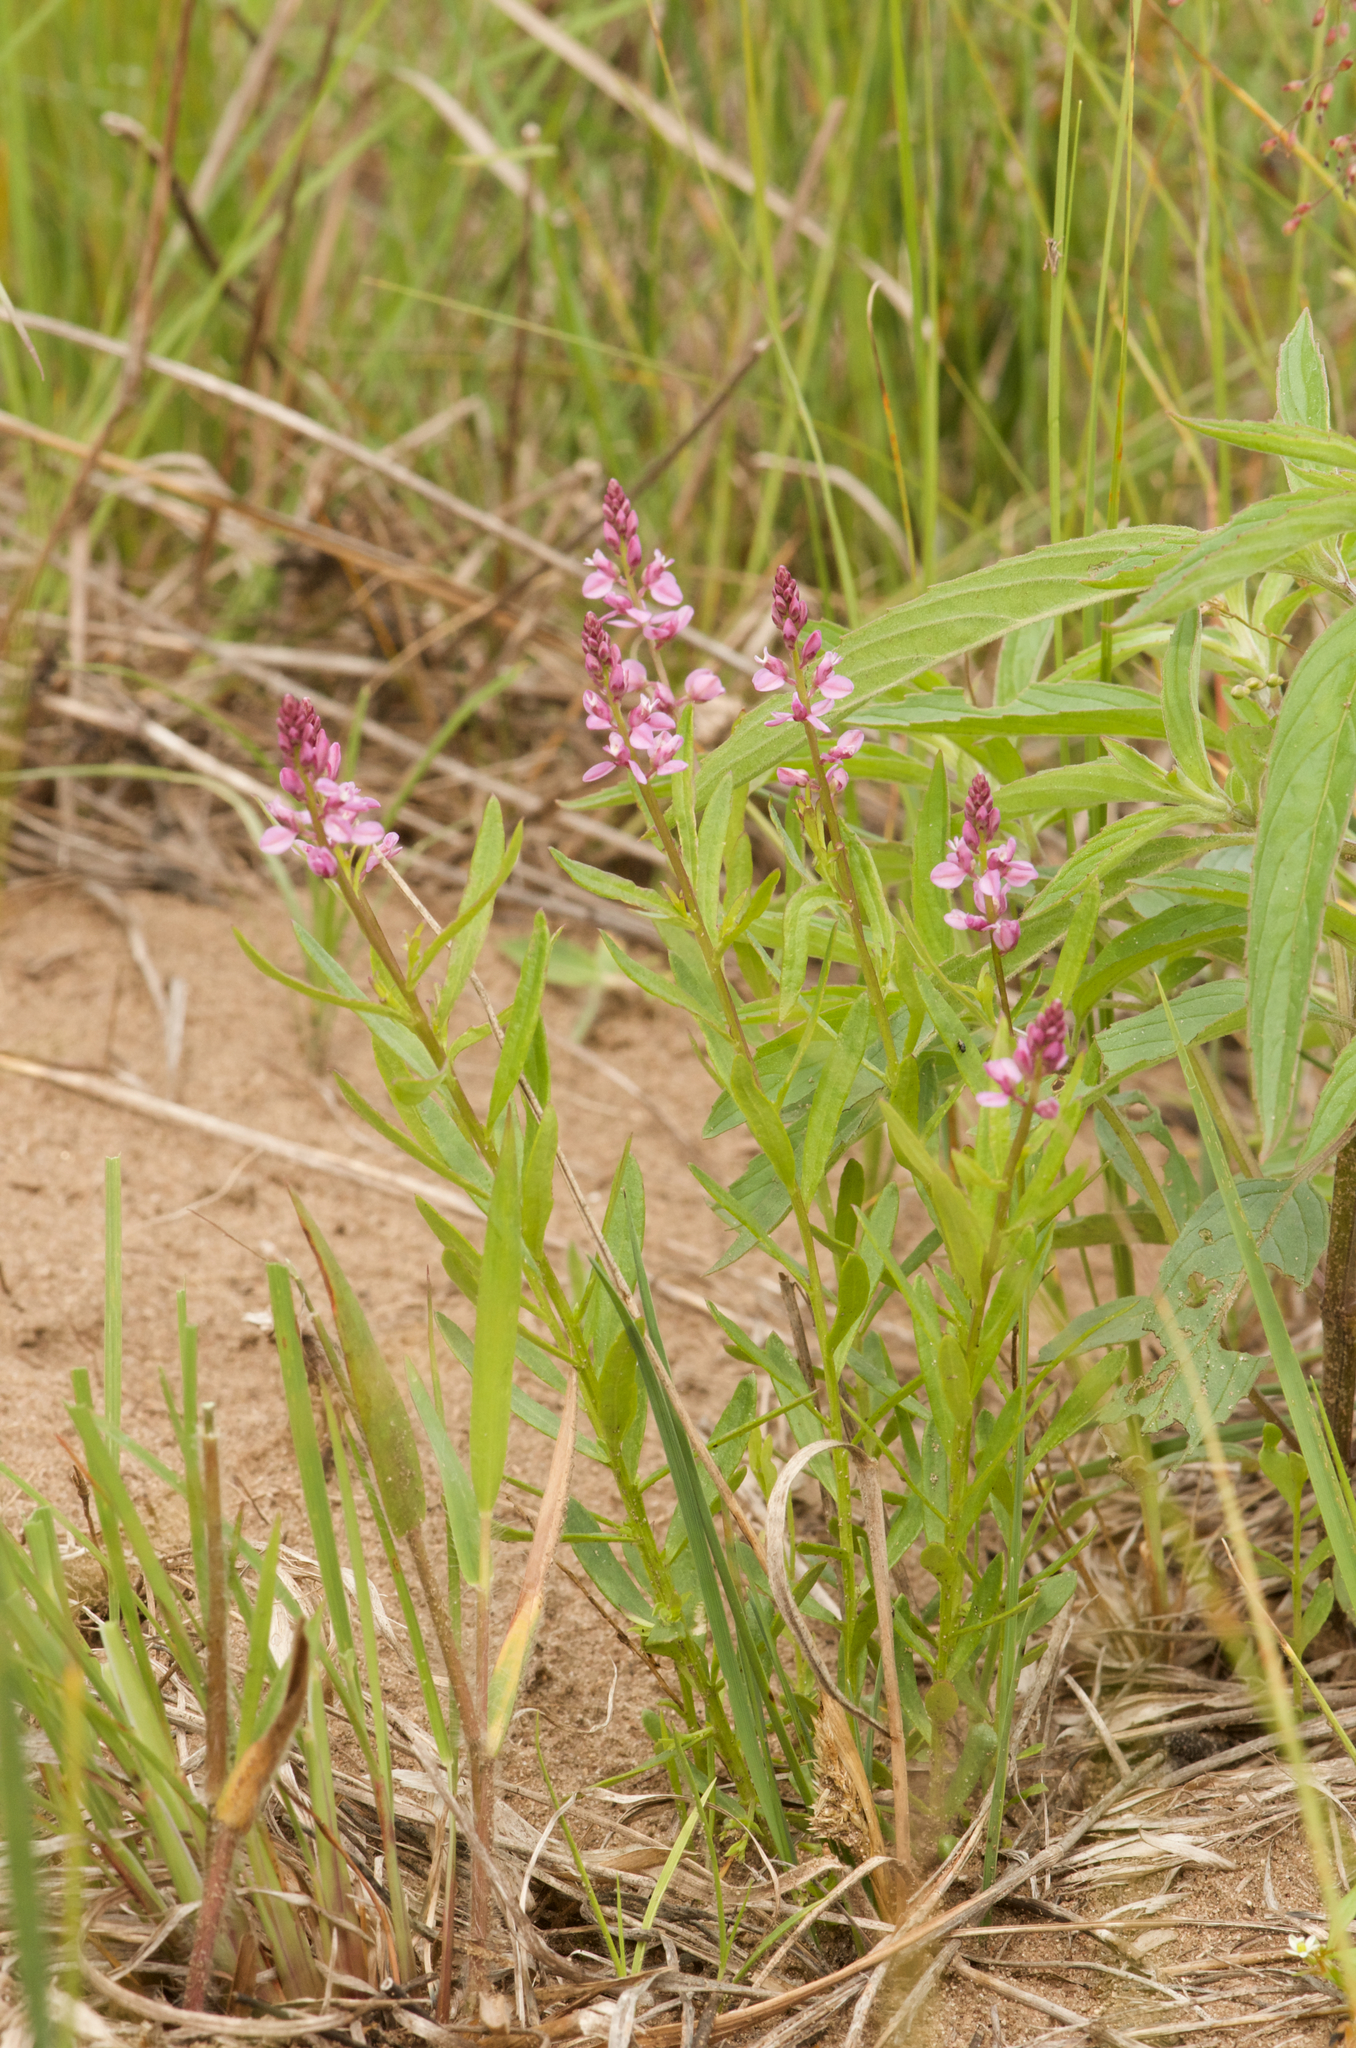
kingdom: Plantae
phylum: Tracheophyta
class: Magnoliopsida
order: Fabales
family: Polygalaceae
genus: Polygala
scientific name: Polygala polygama
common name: Bitter milkwort
